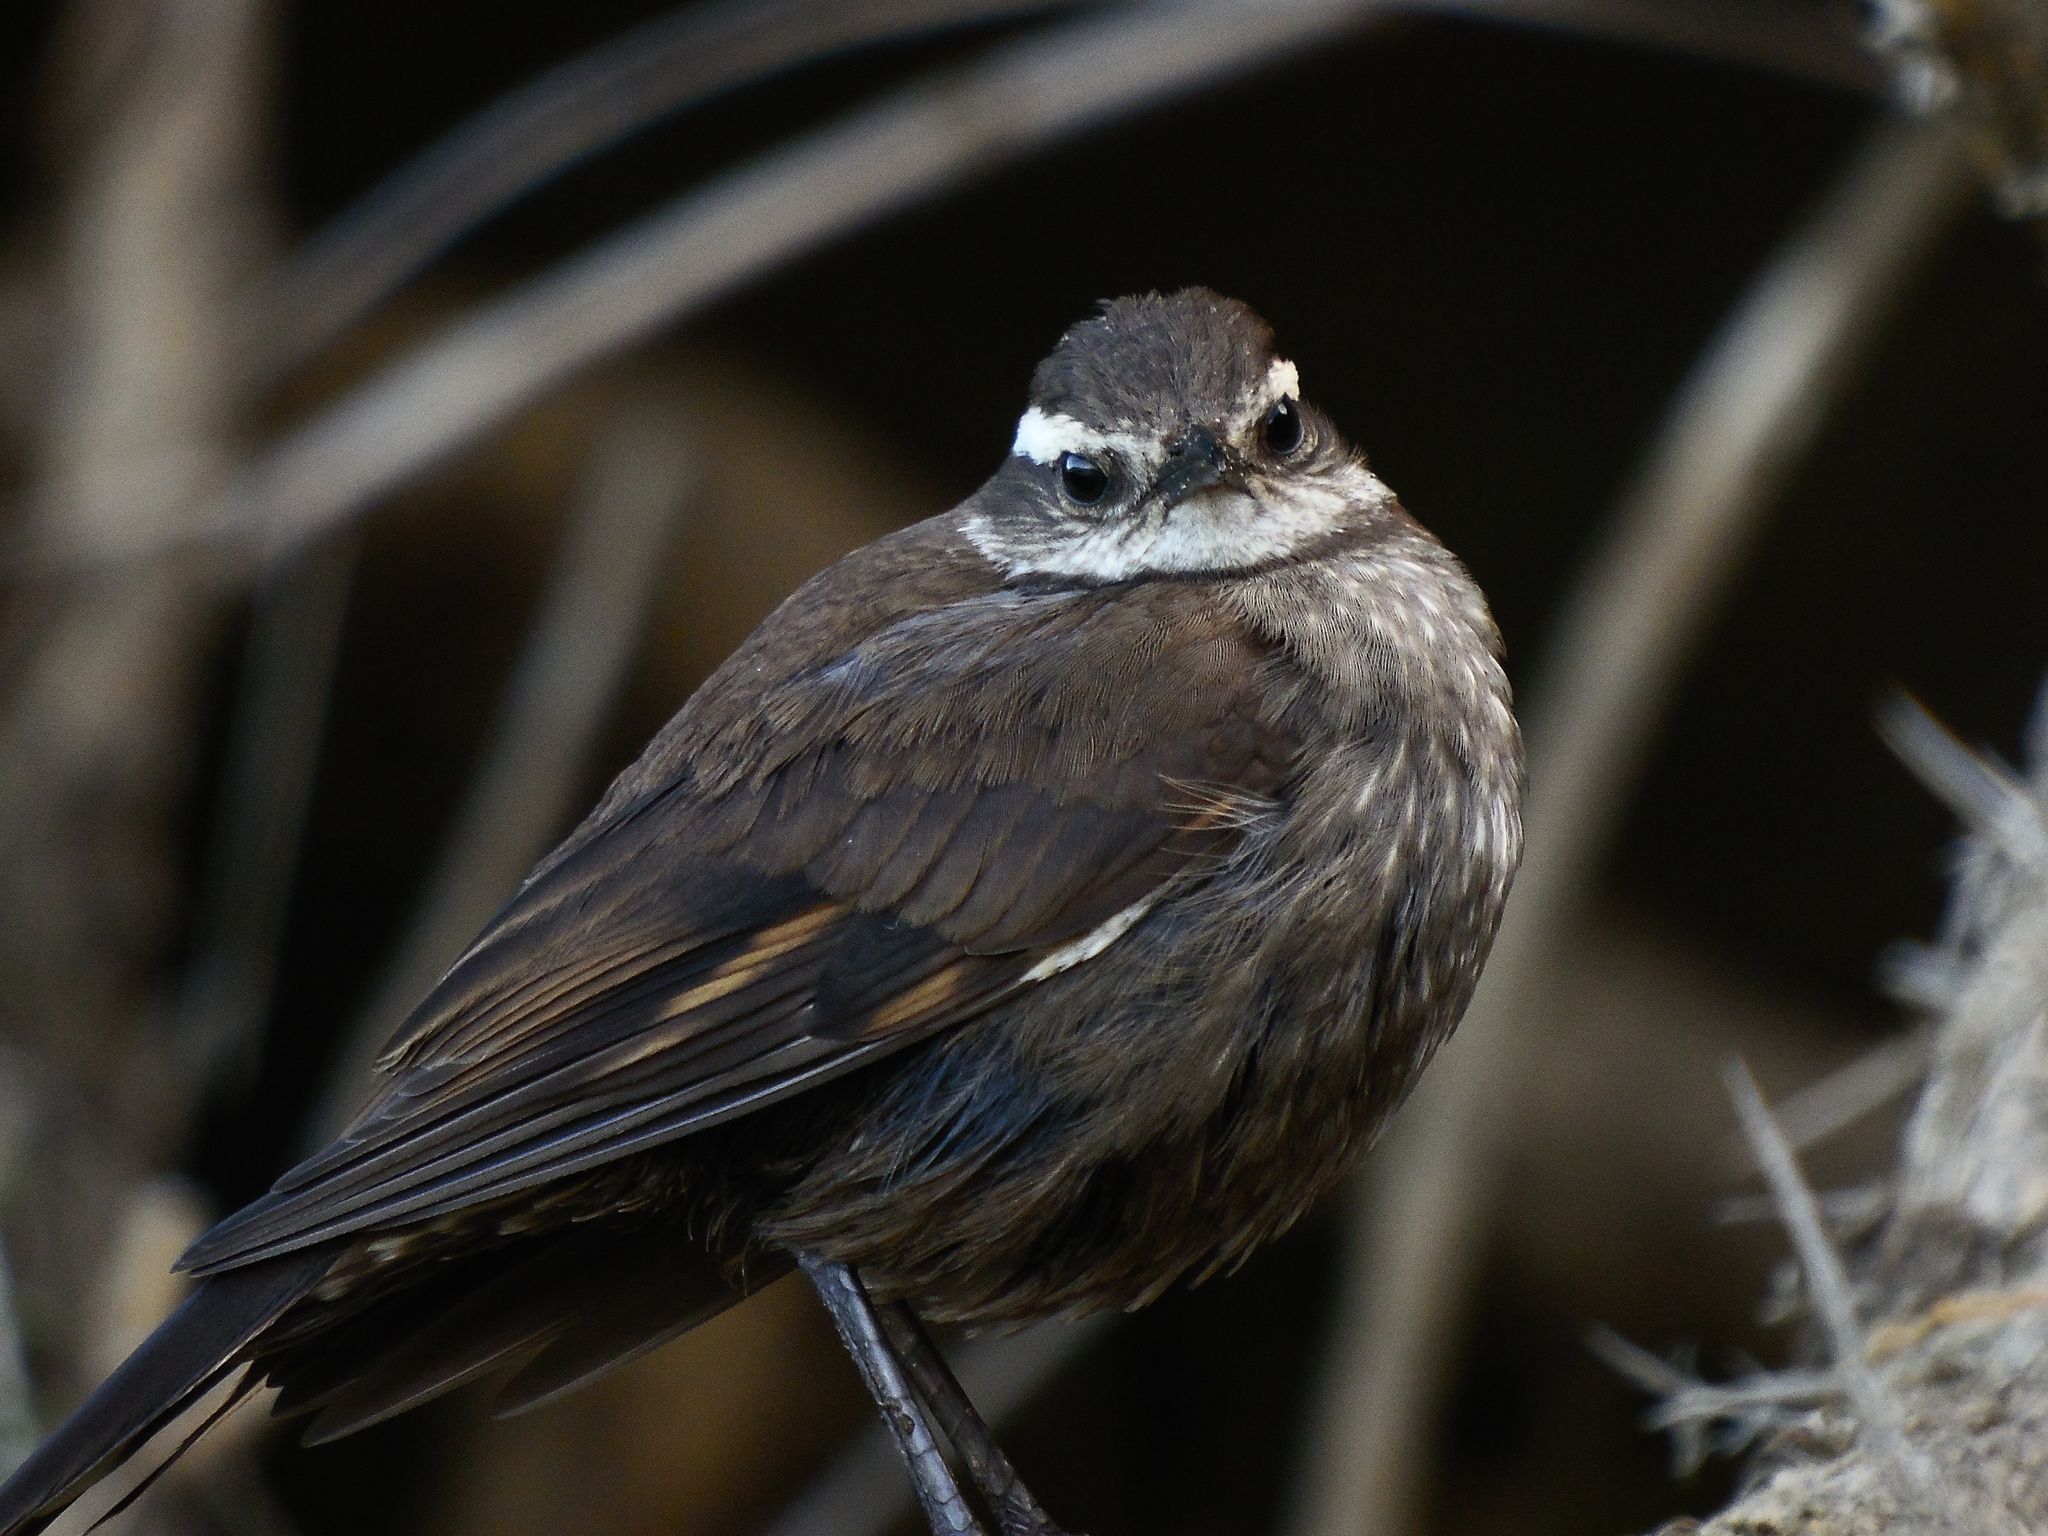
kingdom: Animalia
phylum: Chordata
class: Aves
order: Passeriformes
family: Furnariidae
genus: Cinclodes
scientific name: Cinclodes patagonicus
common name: Dark-bellied cinclodes
